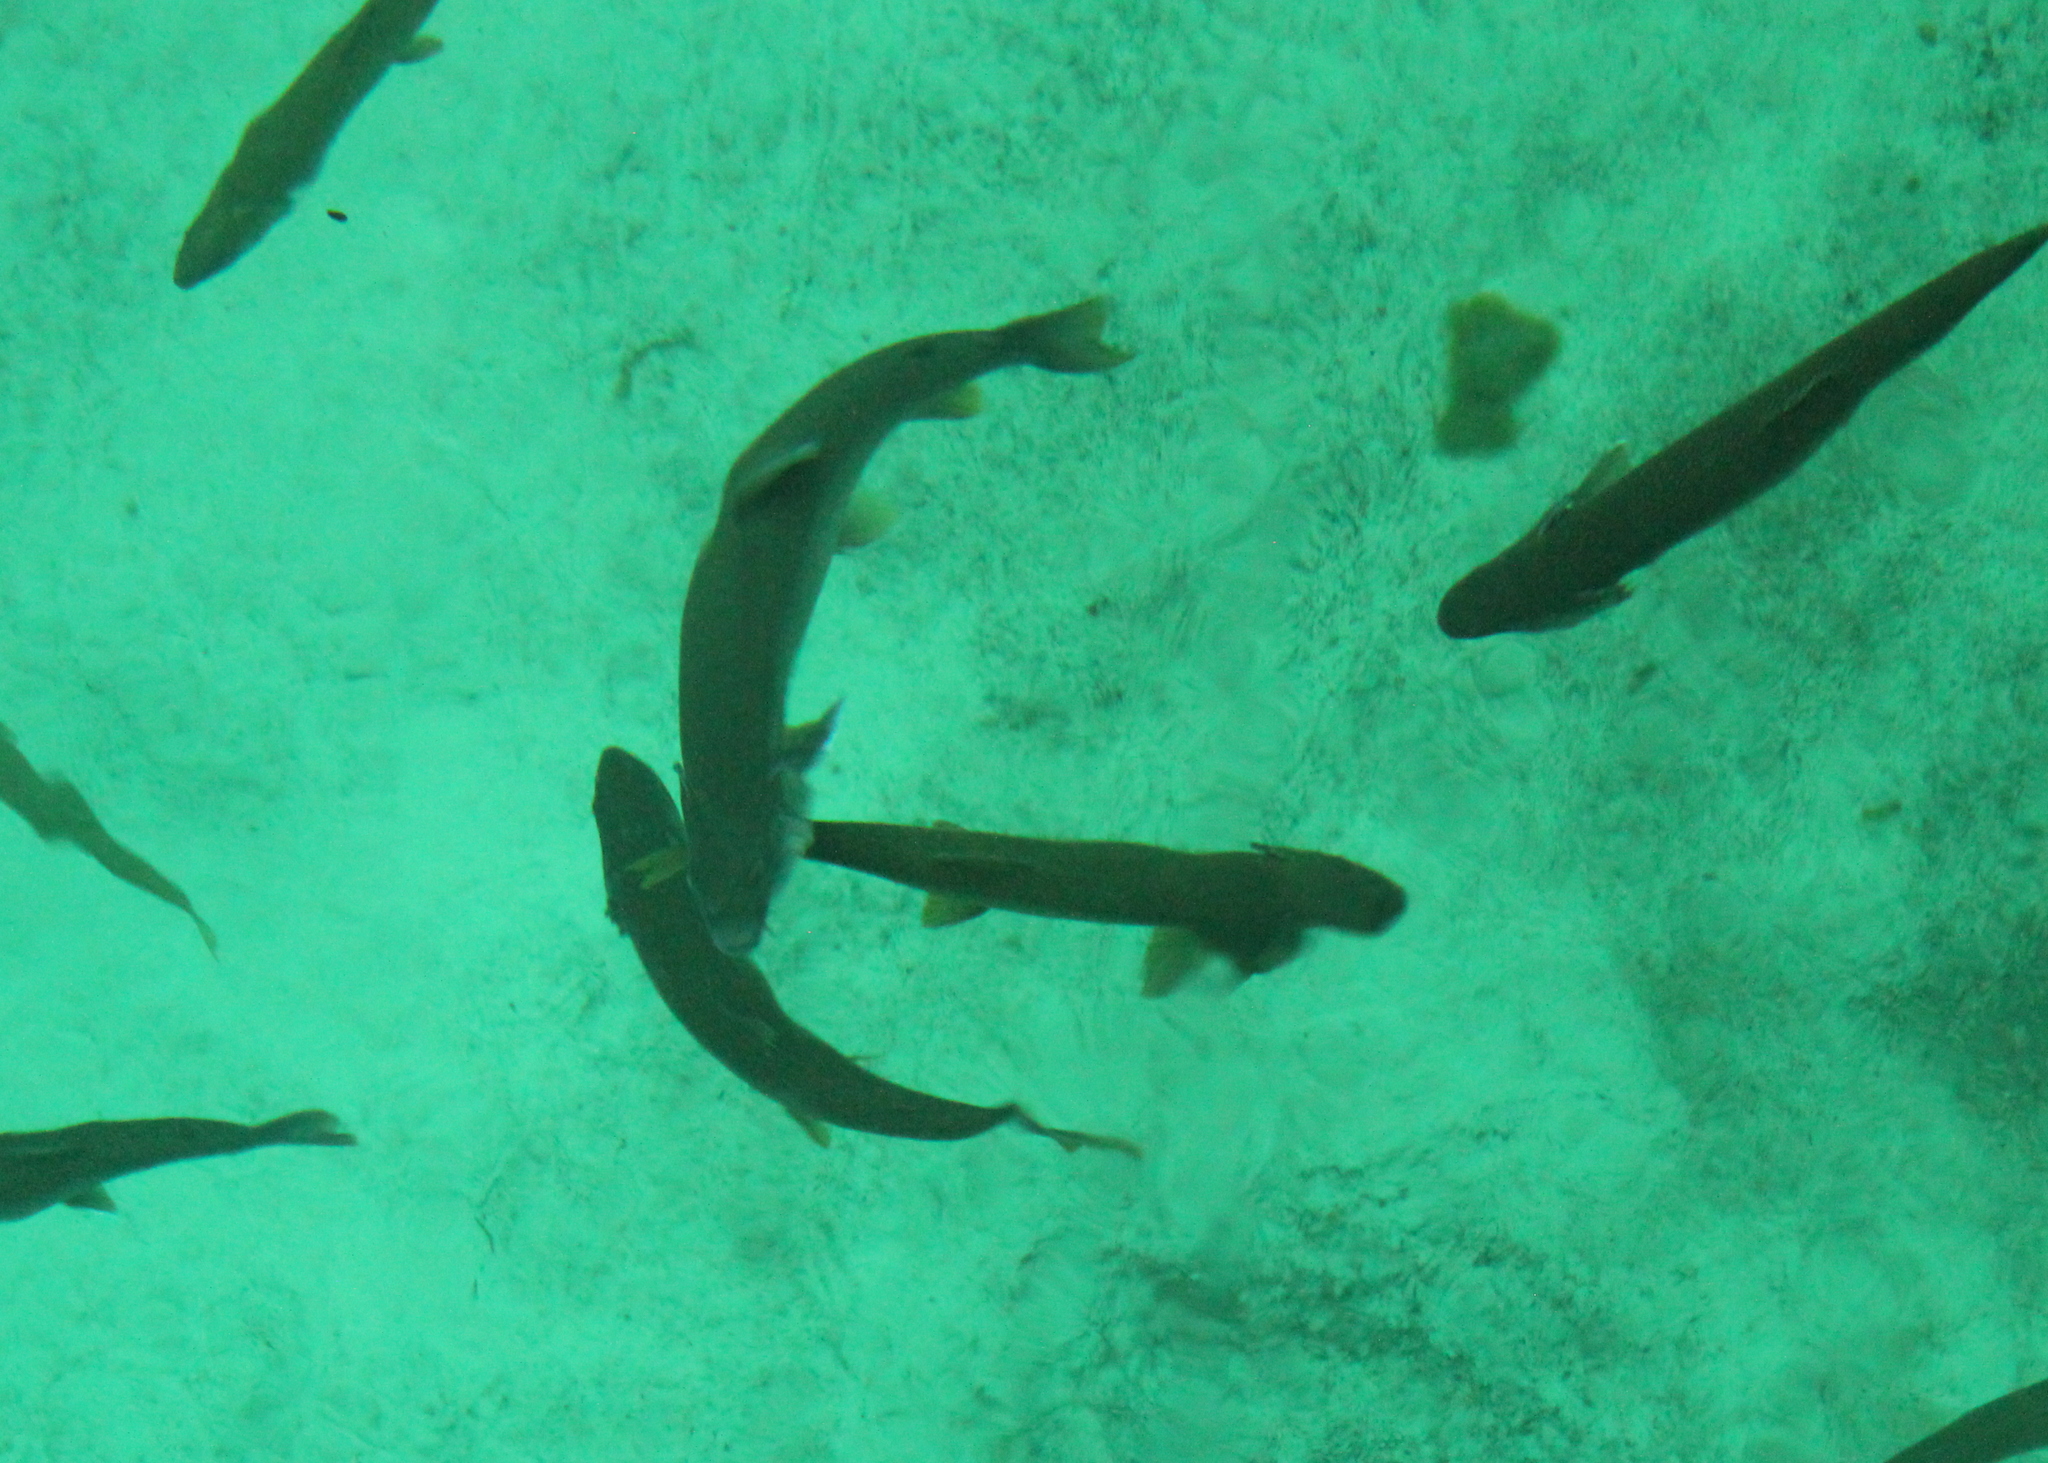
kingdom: Animalia
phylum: Chordata
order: Salmoniformes
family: Salmonidae
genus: Salvelinus
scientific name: Salvelinus namaycush
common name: American lake charr
